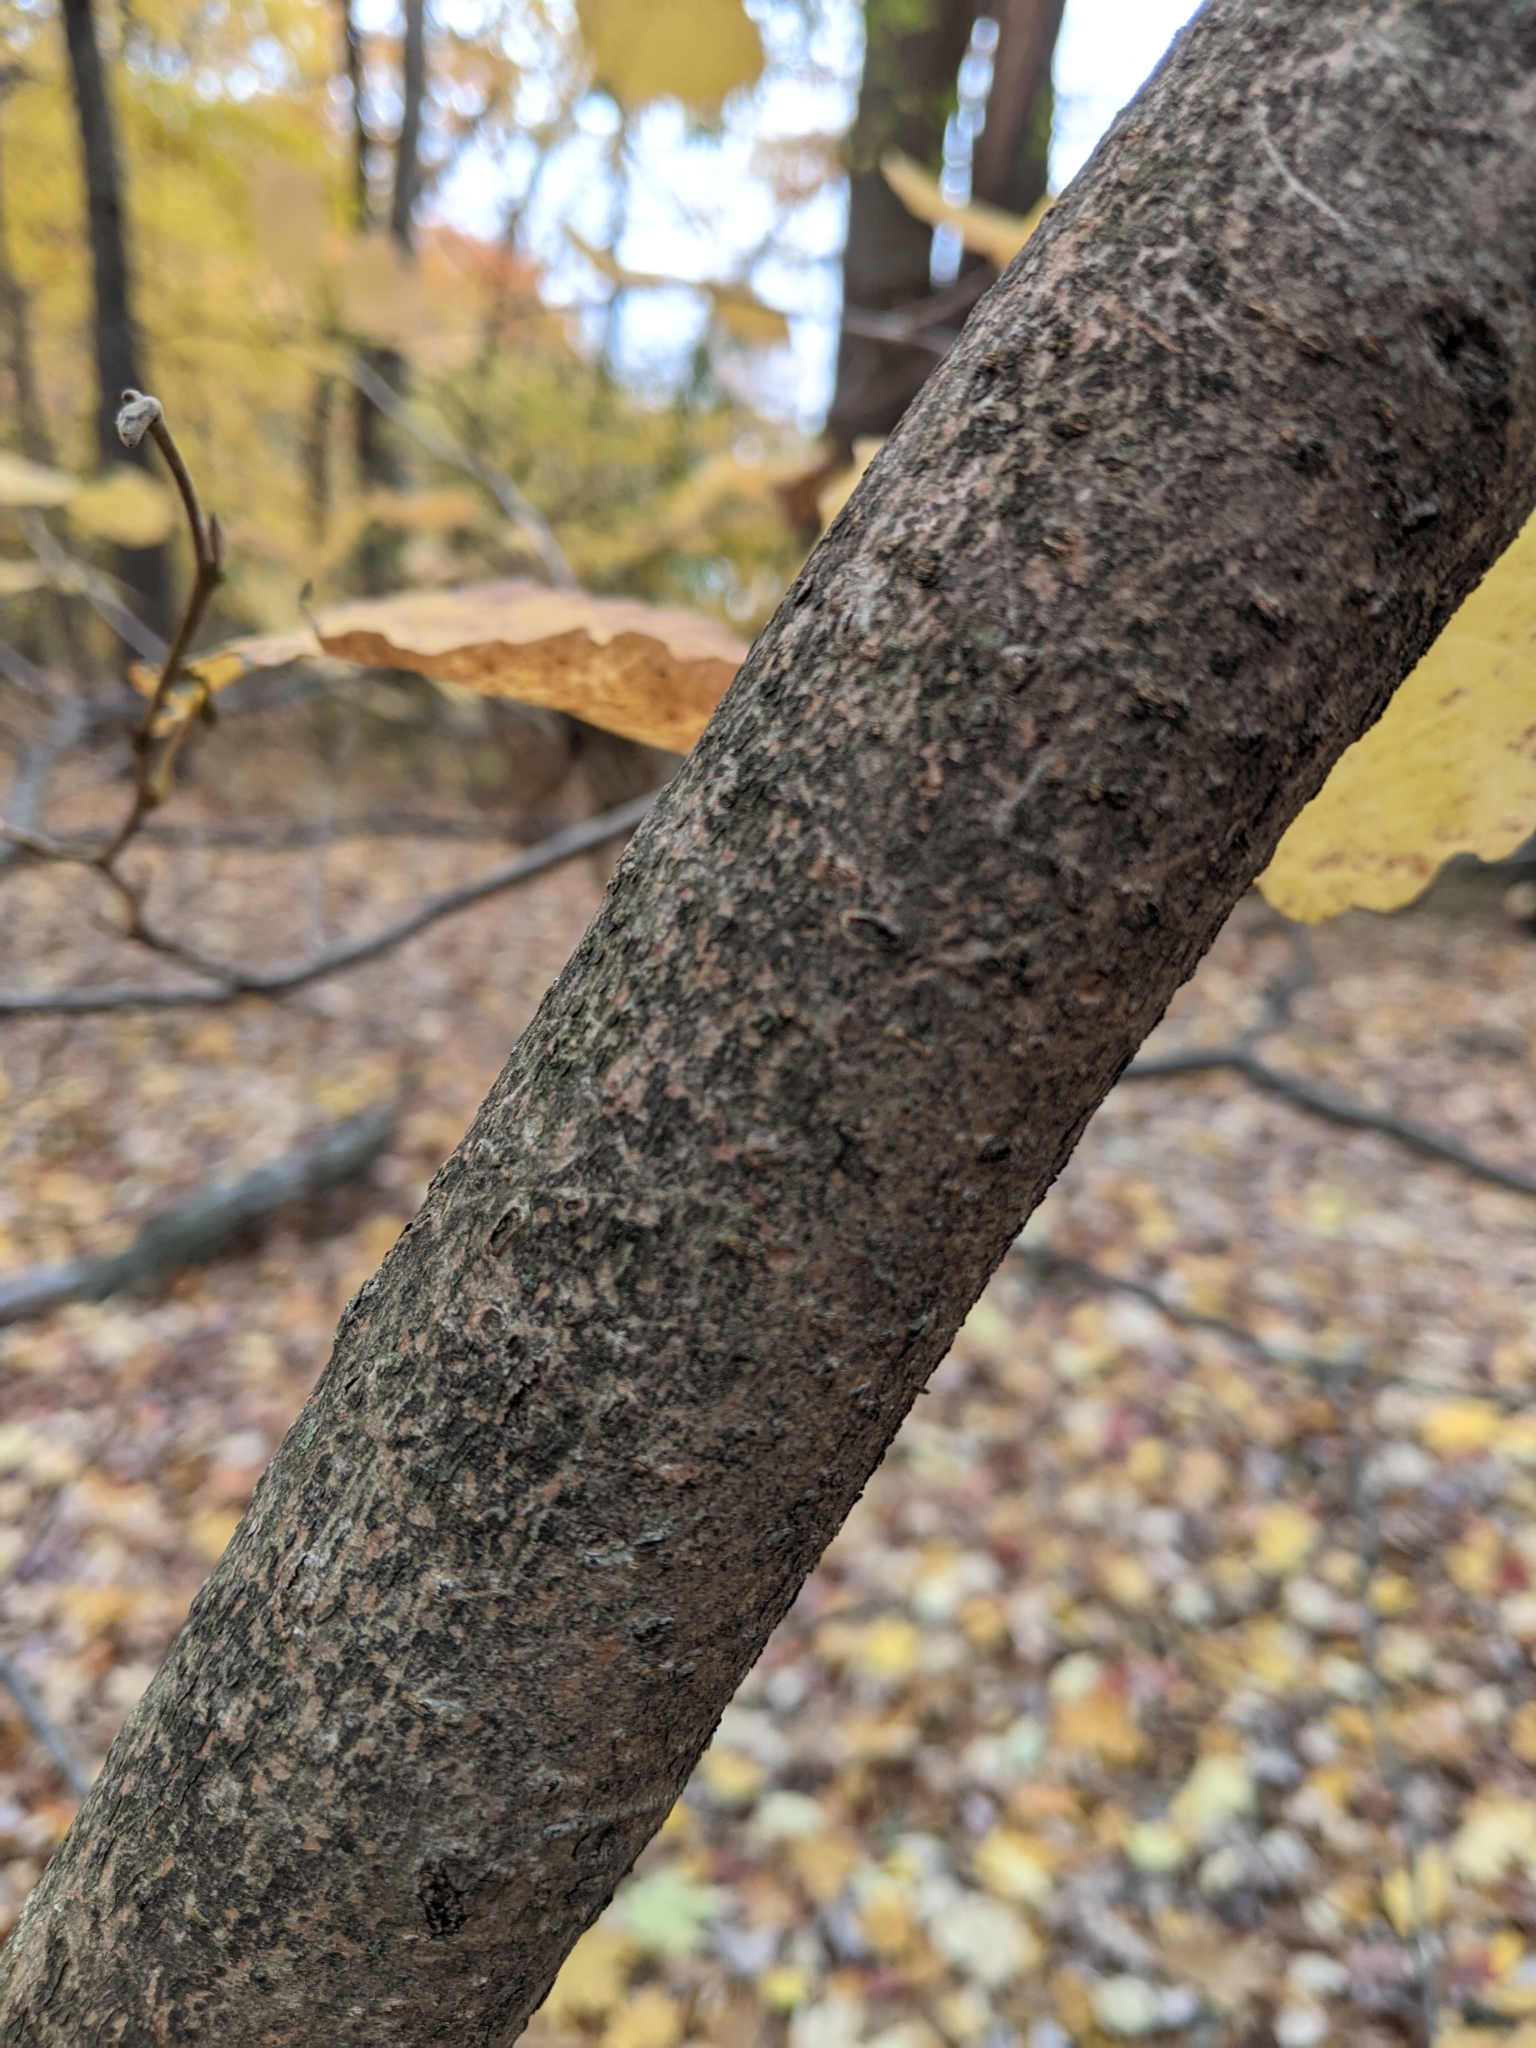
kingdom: Plantae
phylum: Tracheophyta
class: Magnoliopsida
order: Saxifragales
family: Hamamelidaceae
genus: Hamamelis
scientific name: Hamamelis virginiana
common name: Witch-hazel
